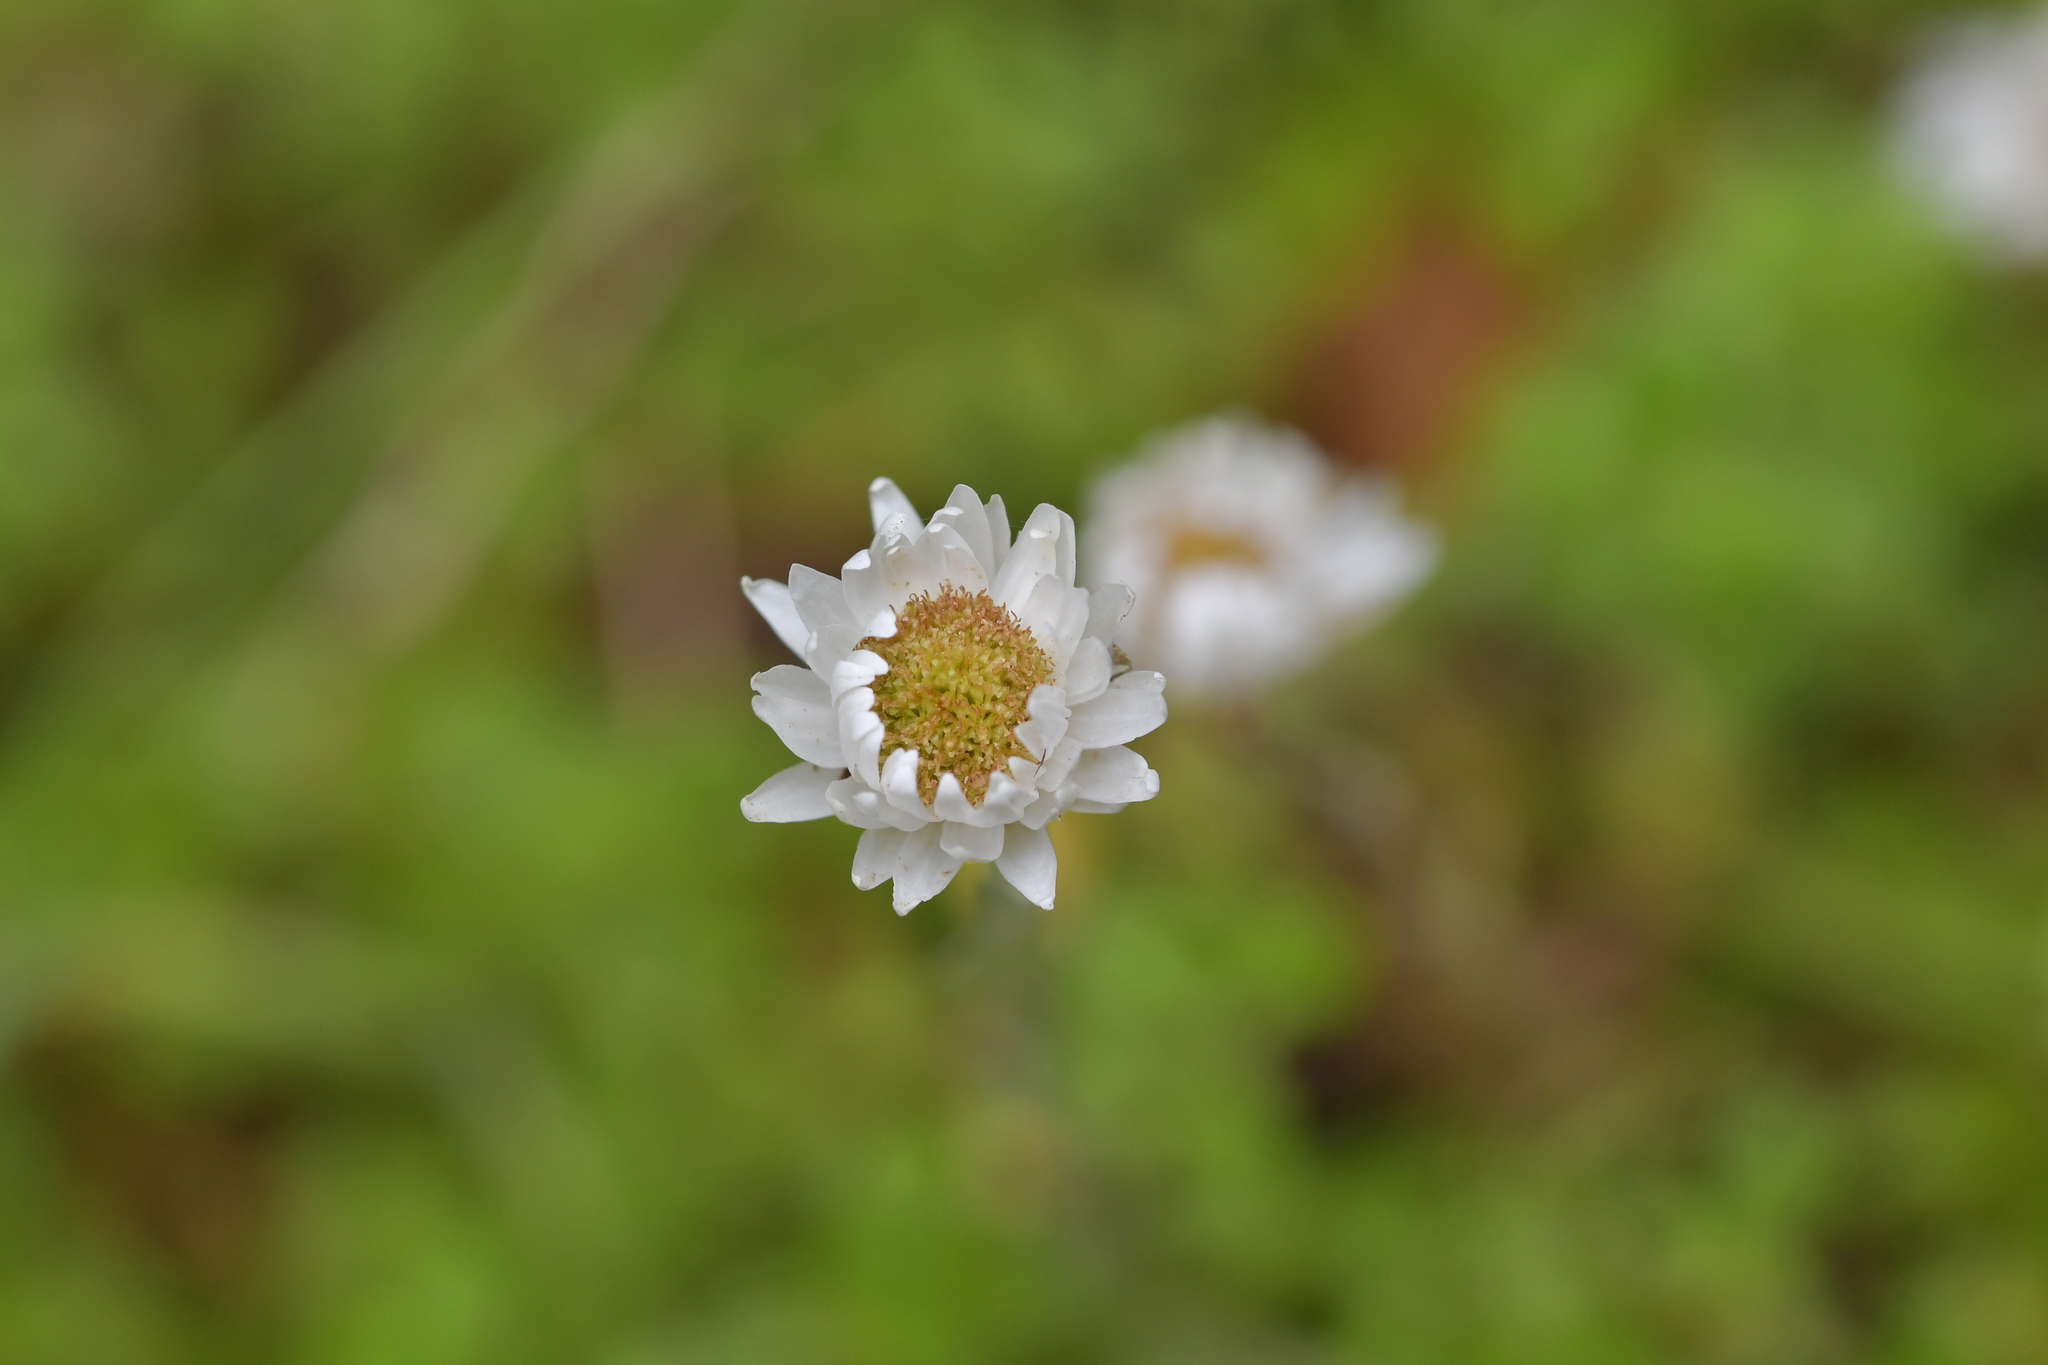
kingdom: Plantae
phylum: Tracheophyta
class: Magnoliopsida
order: Asterales
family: Asteraceae
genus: Anaphalioides
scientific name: Anaphalioides bellidioides
